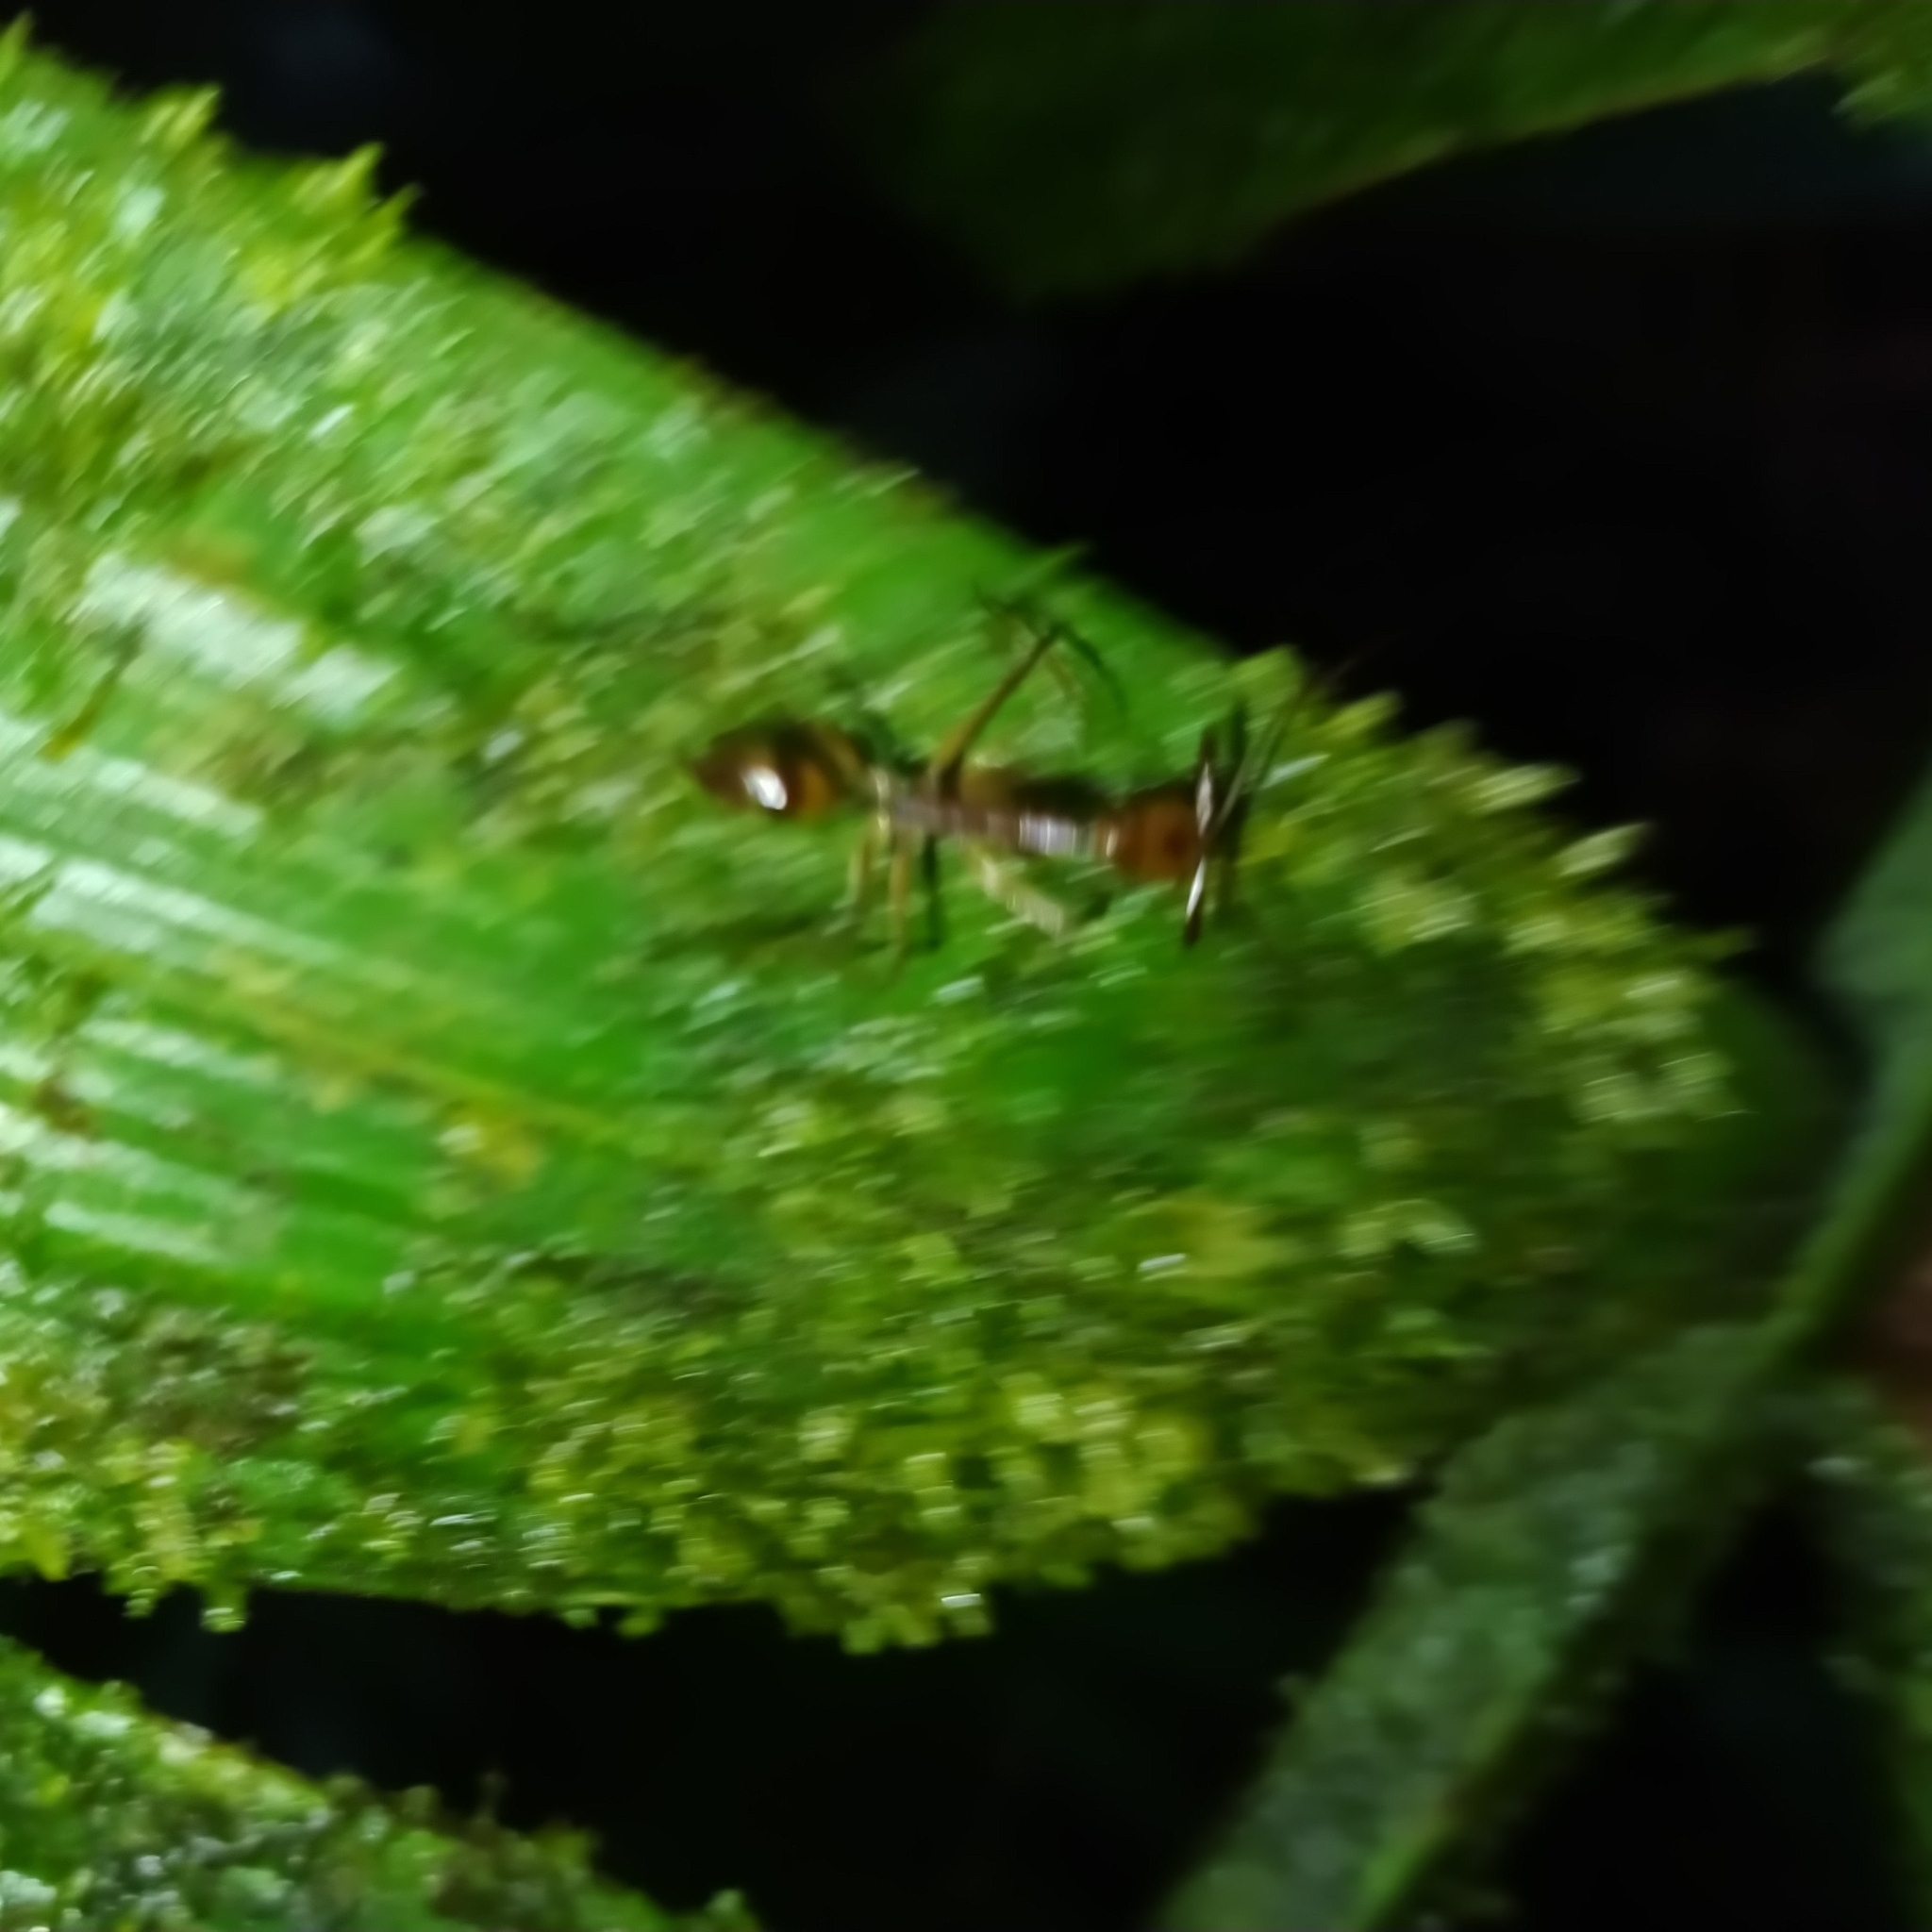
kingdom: Animalia
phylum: Arthropoda
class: Insecta
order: Hymenoptera
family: Formicidae
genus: Odontomachus
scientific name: Odontomachus hastatus
